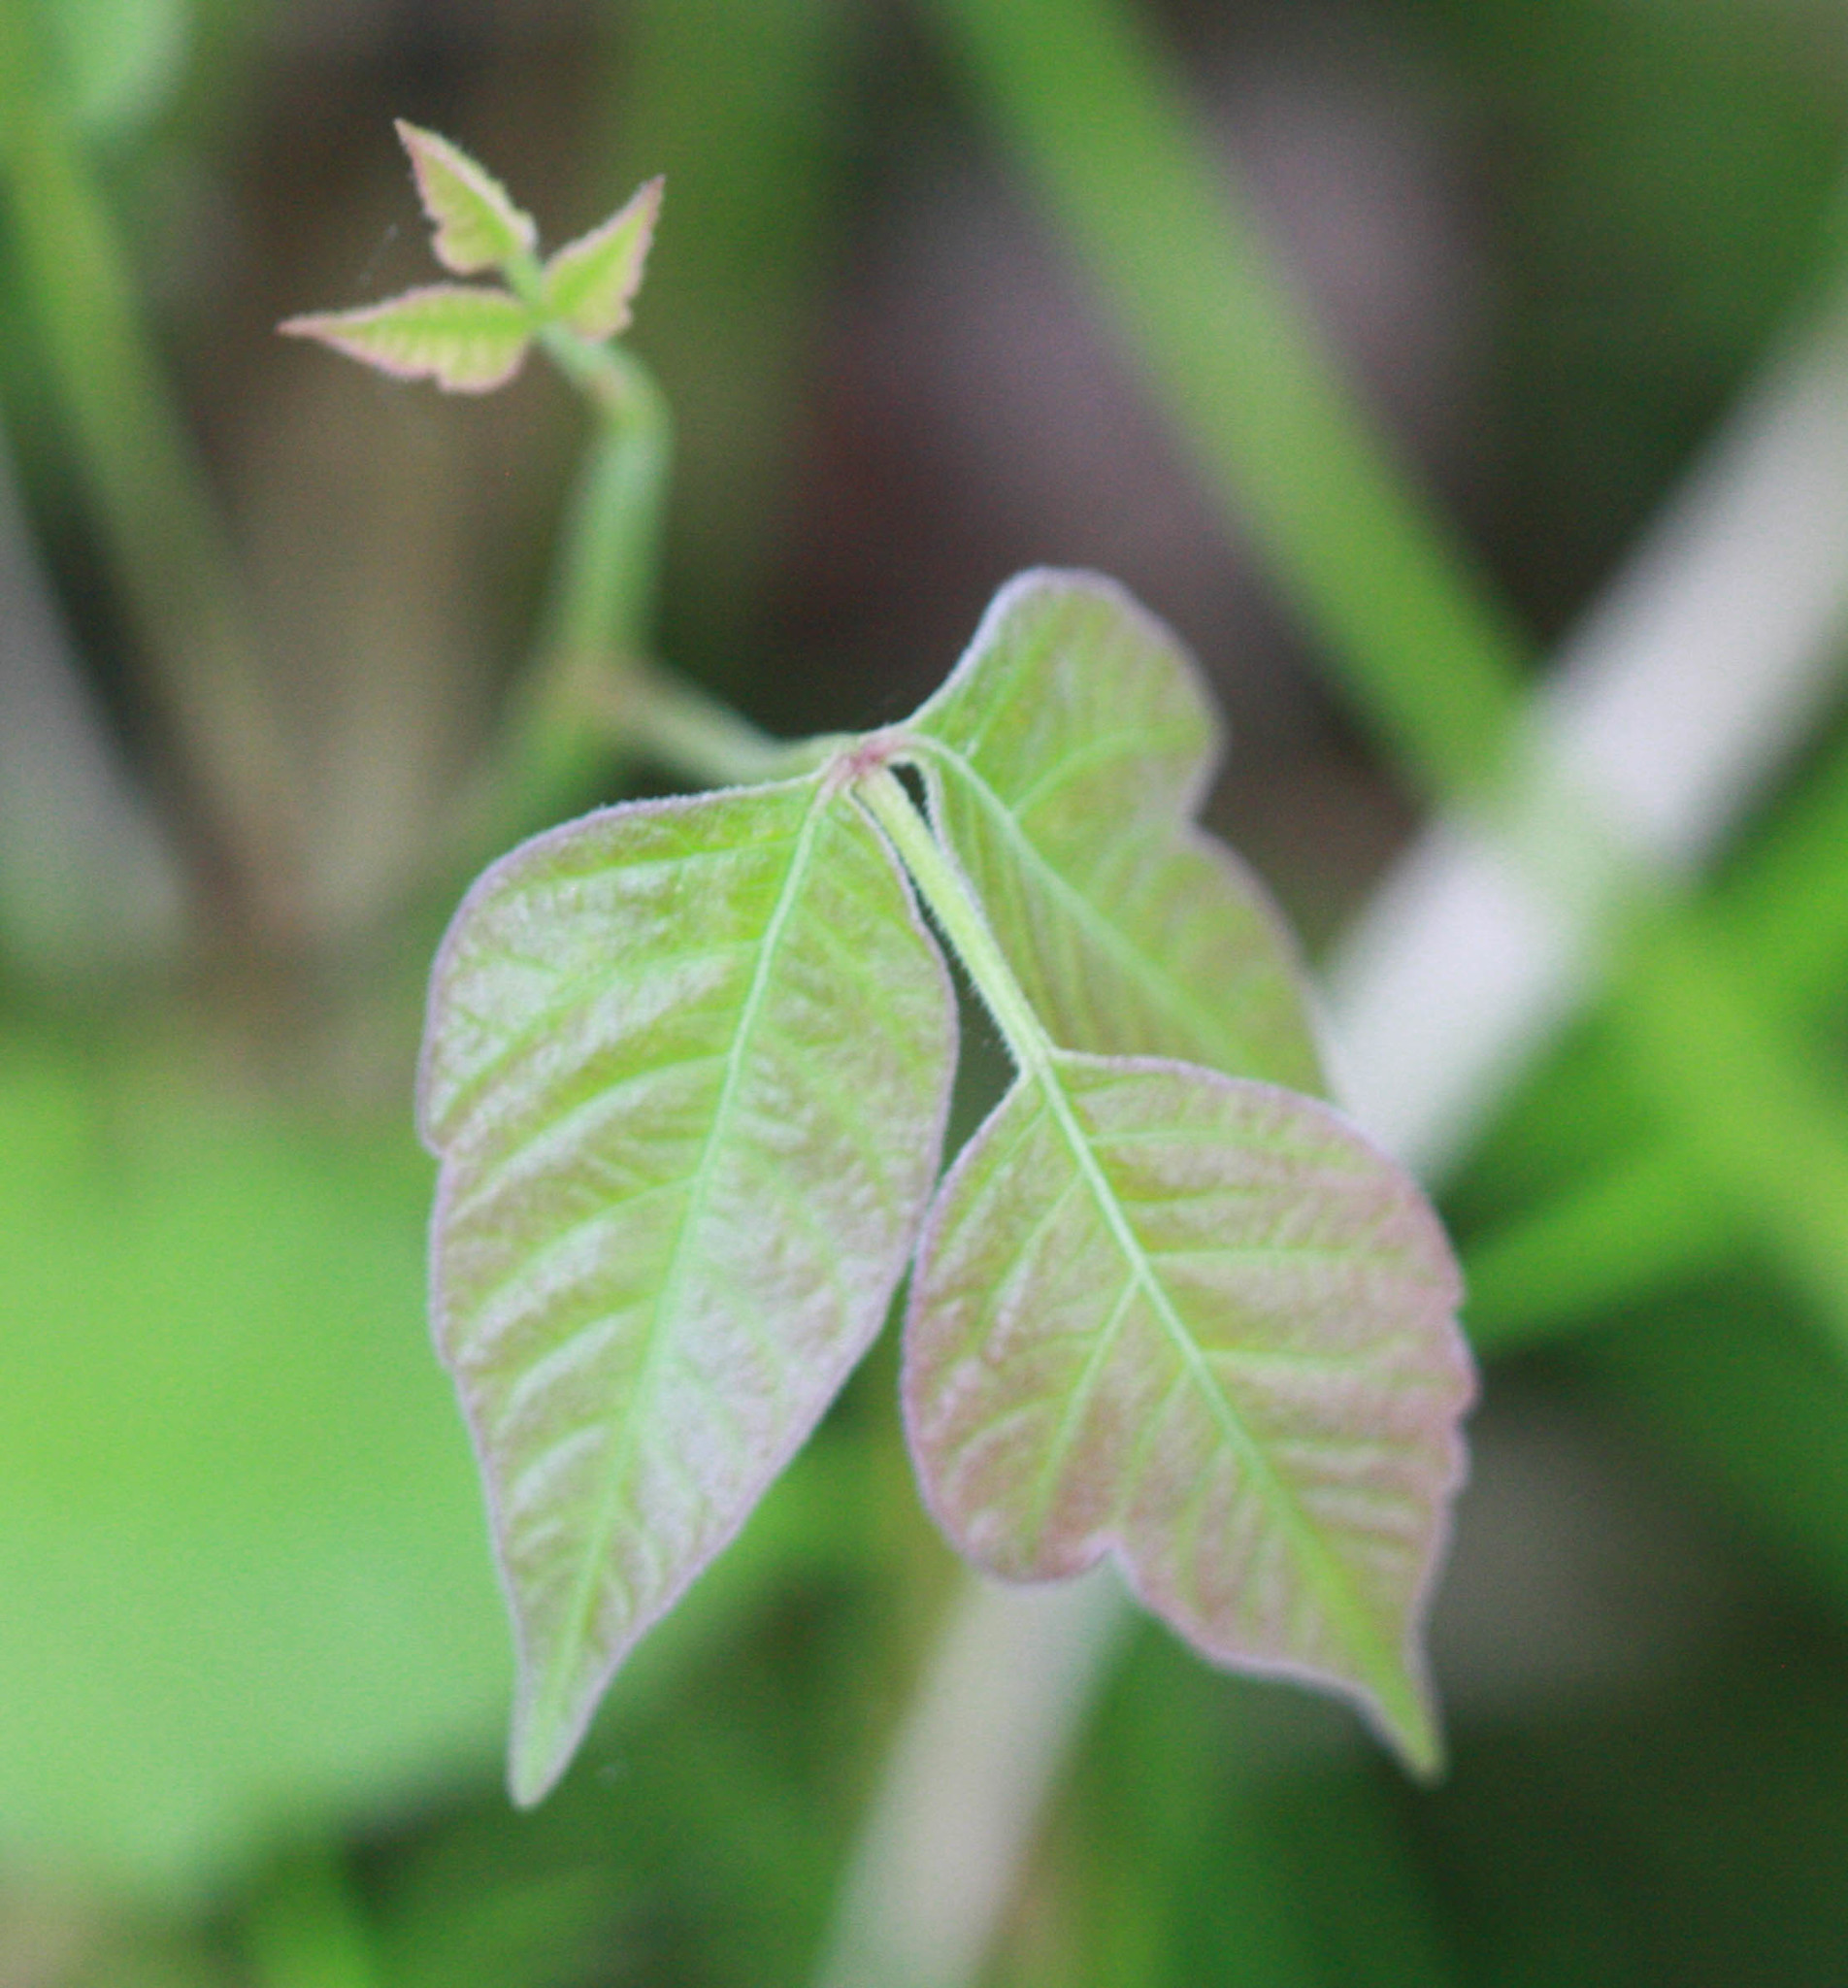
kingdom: Plantae
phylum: Tracheophyta
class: Magnoliopsida
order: Sapindales
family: Anacardiaceae
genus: Toxicodendron
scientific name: Toxicodendron radicans
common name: Poison ivy
